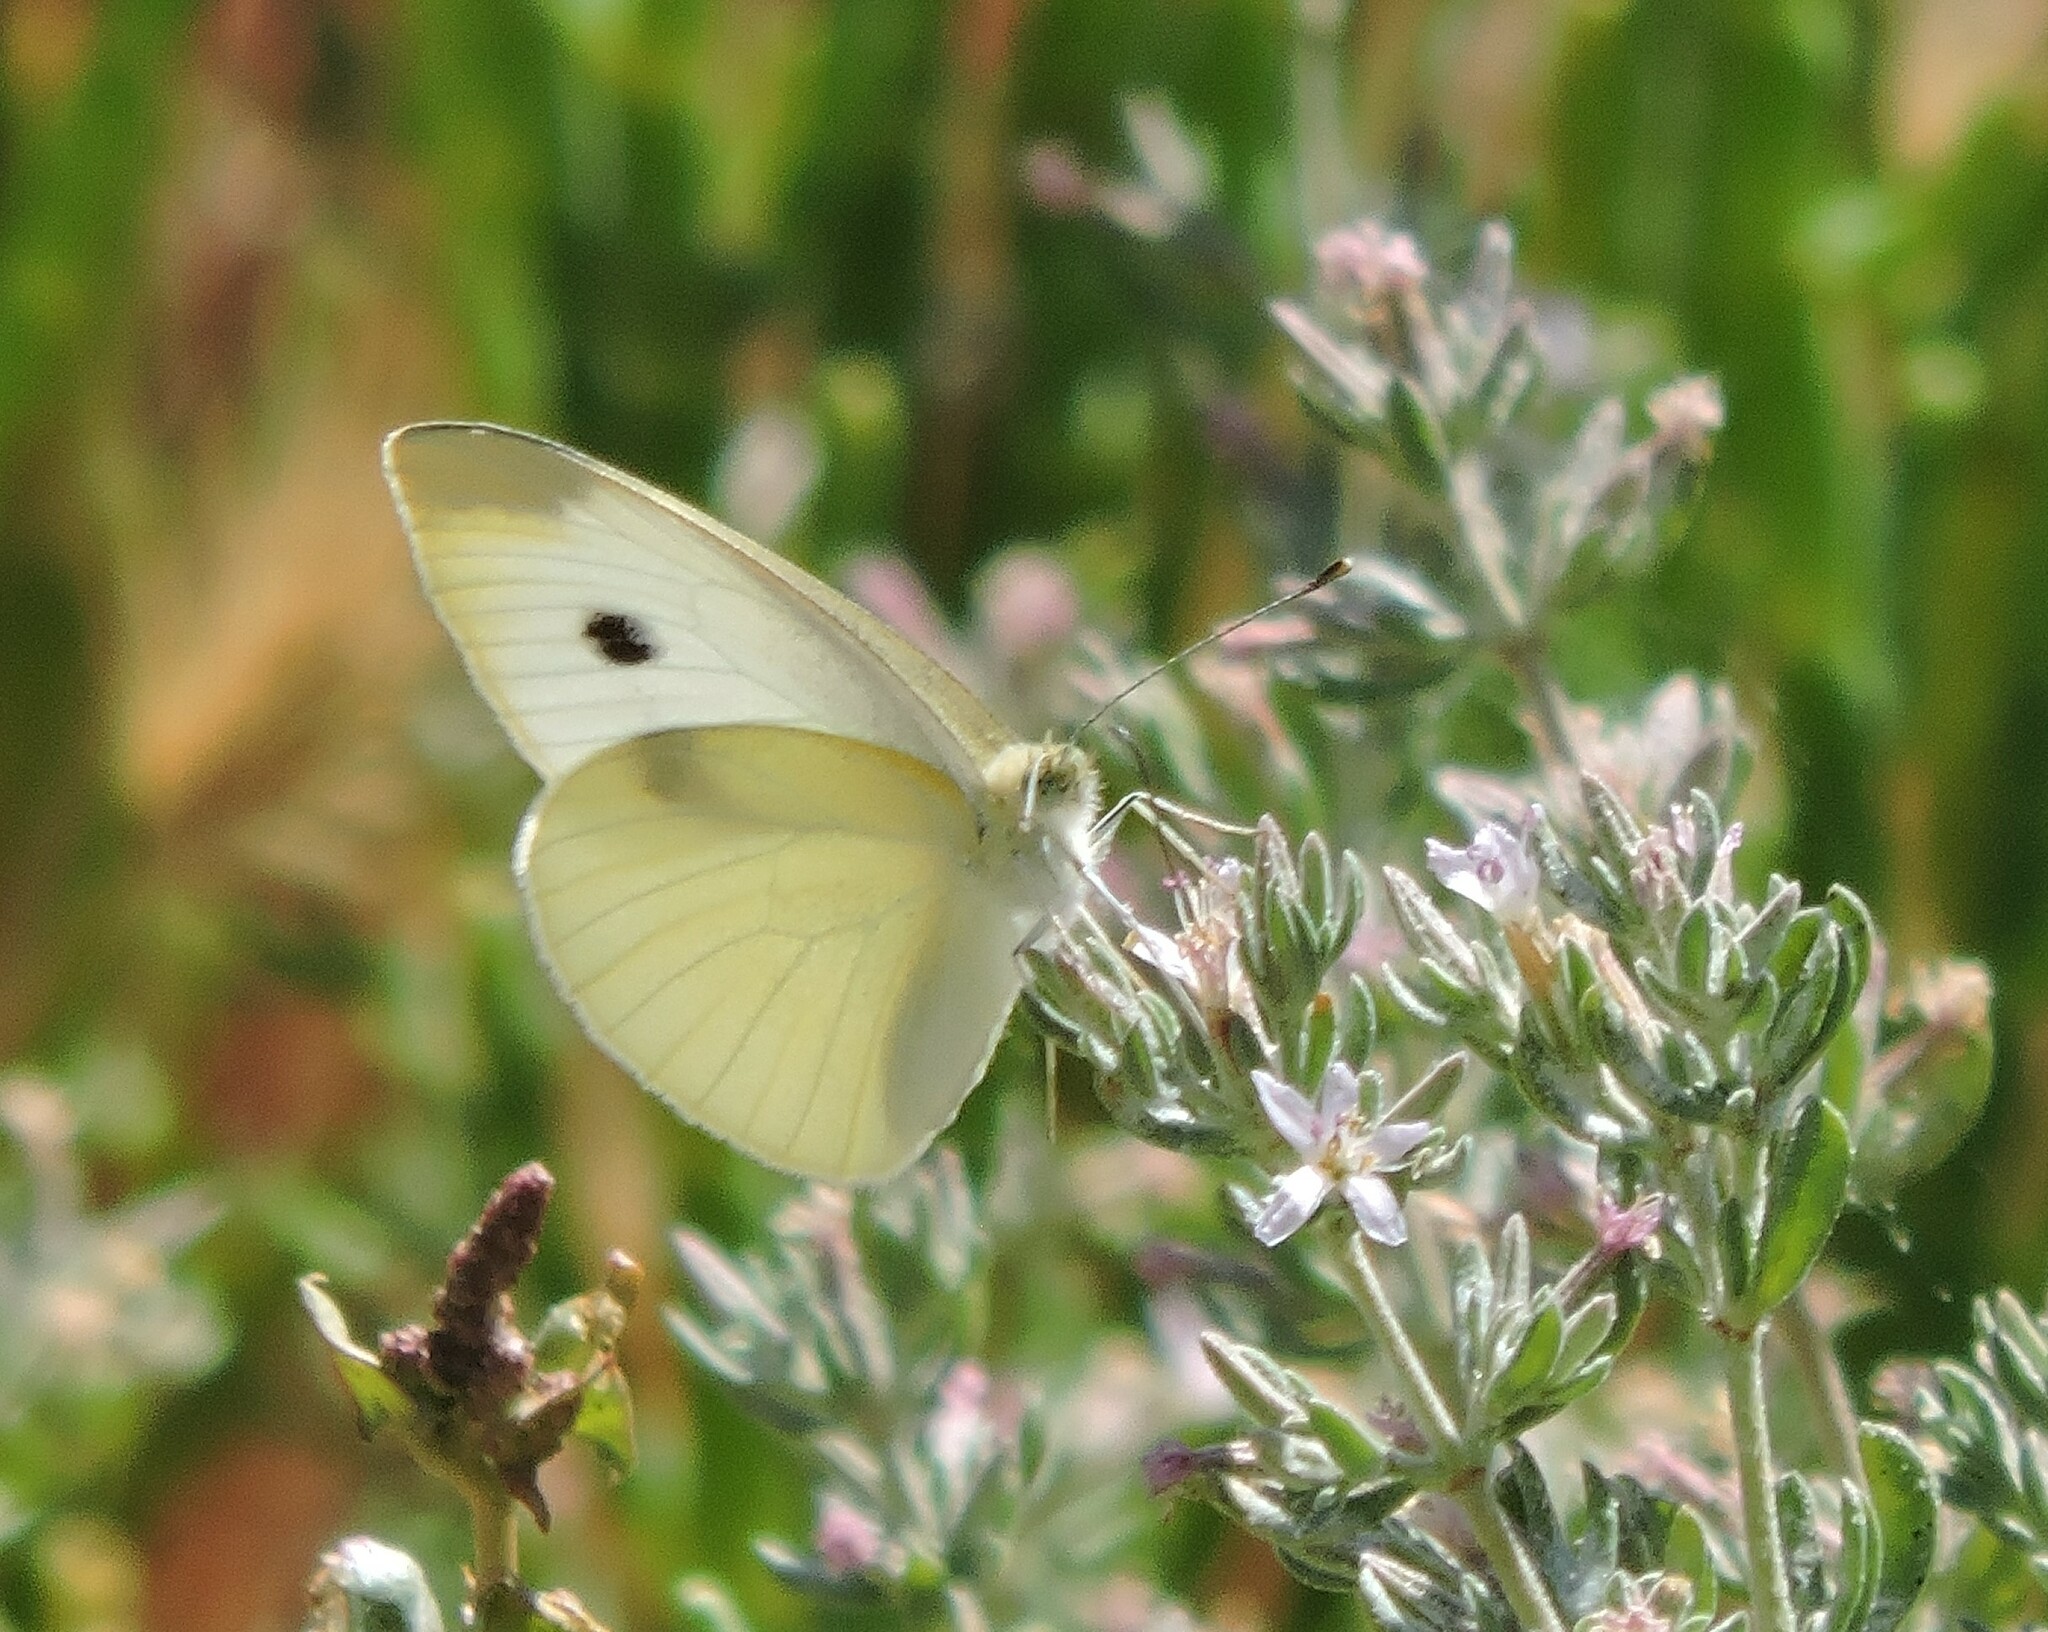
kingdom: Animalia
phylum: Arthropoda
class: Insecta
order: Lepidoptera
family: Pieridae
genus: Pieris
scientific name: Pieris rapae
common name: Small white
